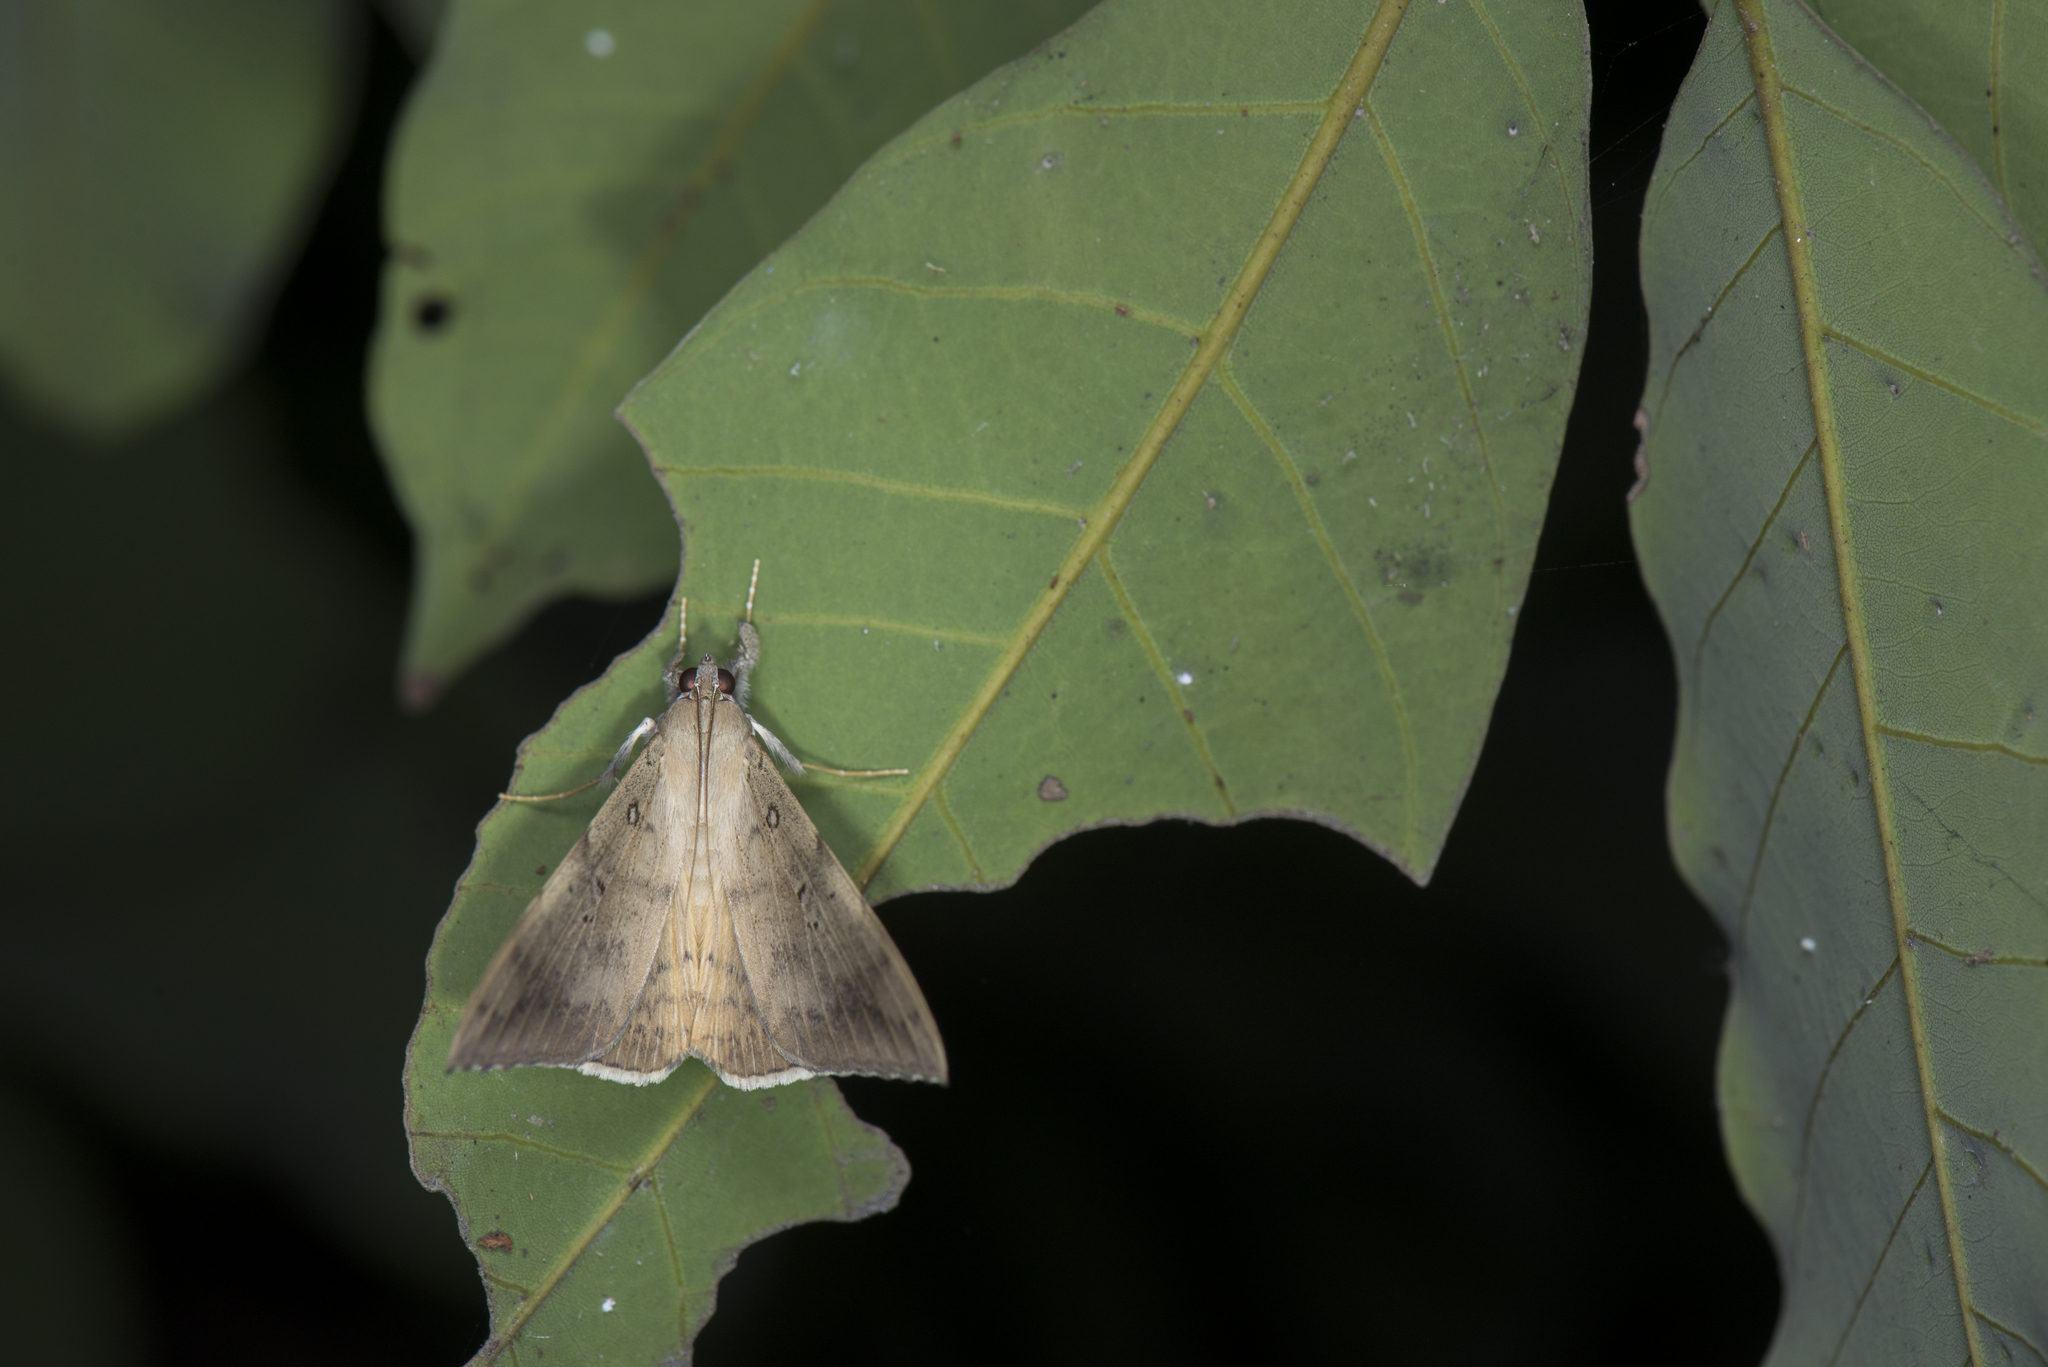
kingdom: Animalia
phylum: Arthropoda
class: Insecta
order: Lepidoptera
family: Erebidae
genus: Oxyodes
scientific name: Oxyodes scrobiculata
